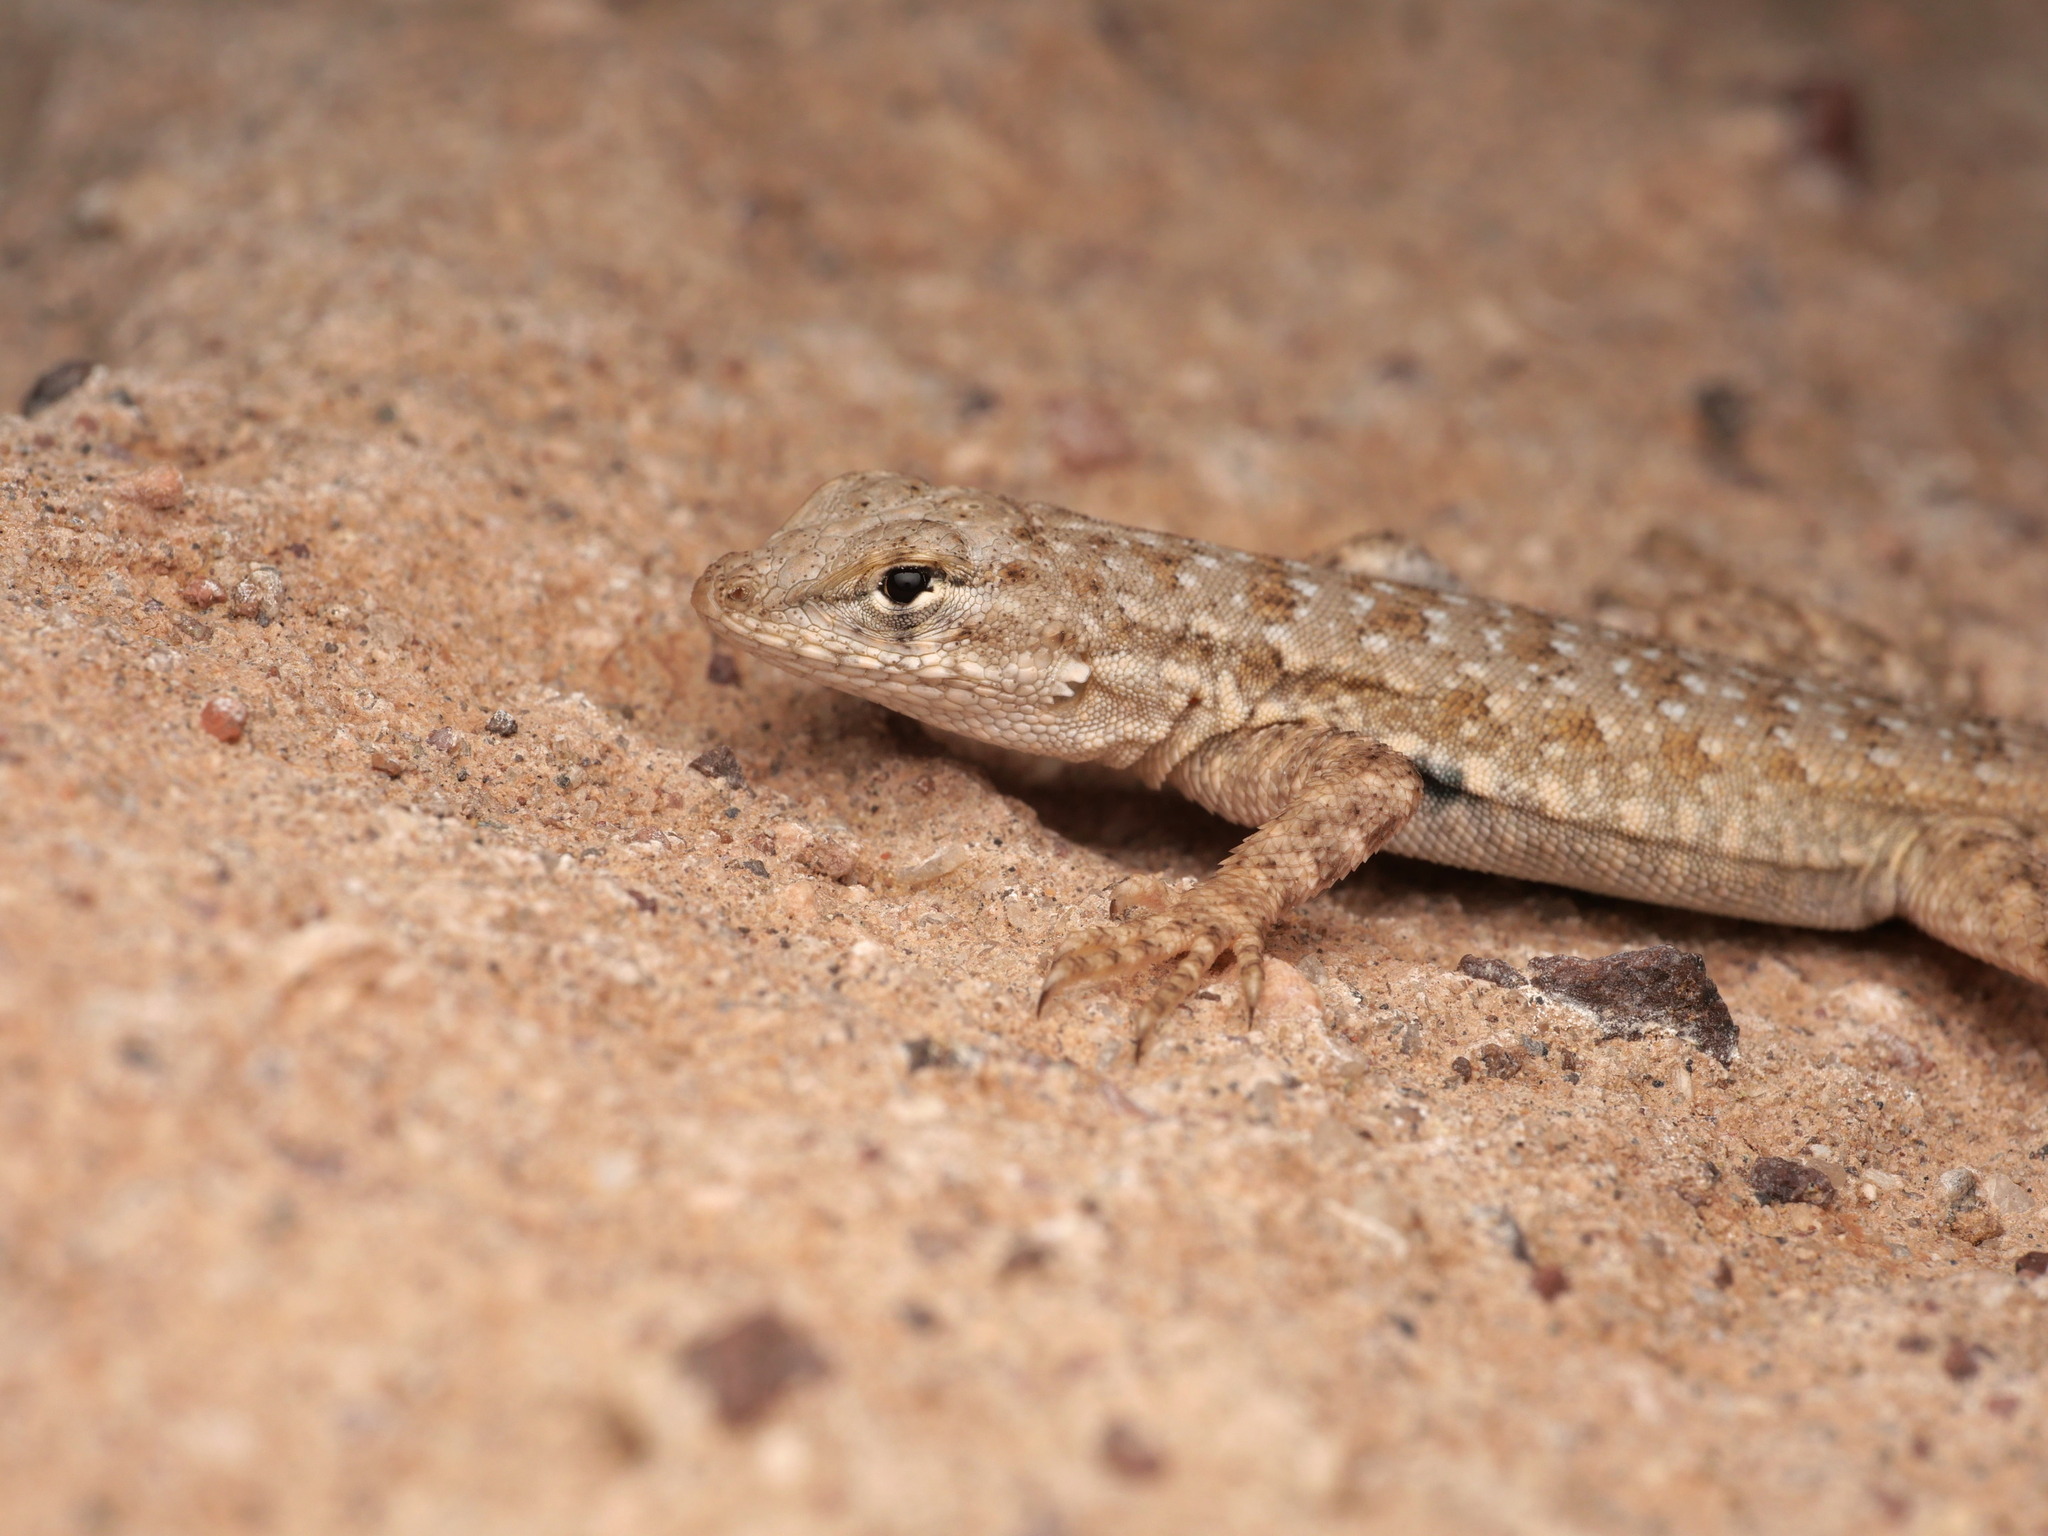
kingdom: Animalia
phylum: Chordata
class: Squamata
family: Phrynosomatidae
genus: Uta
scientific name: Uta stansburiana
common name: Side-blotched lizard
